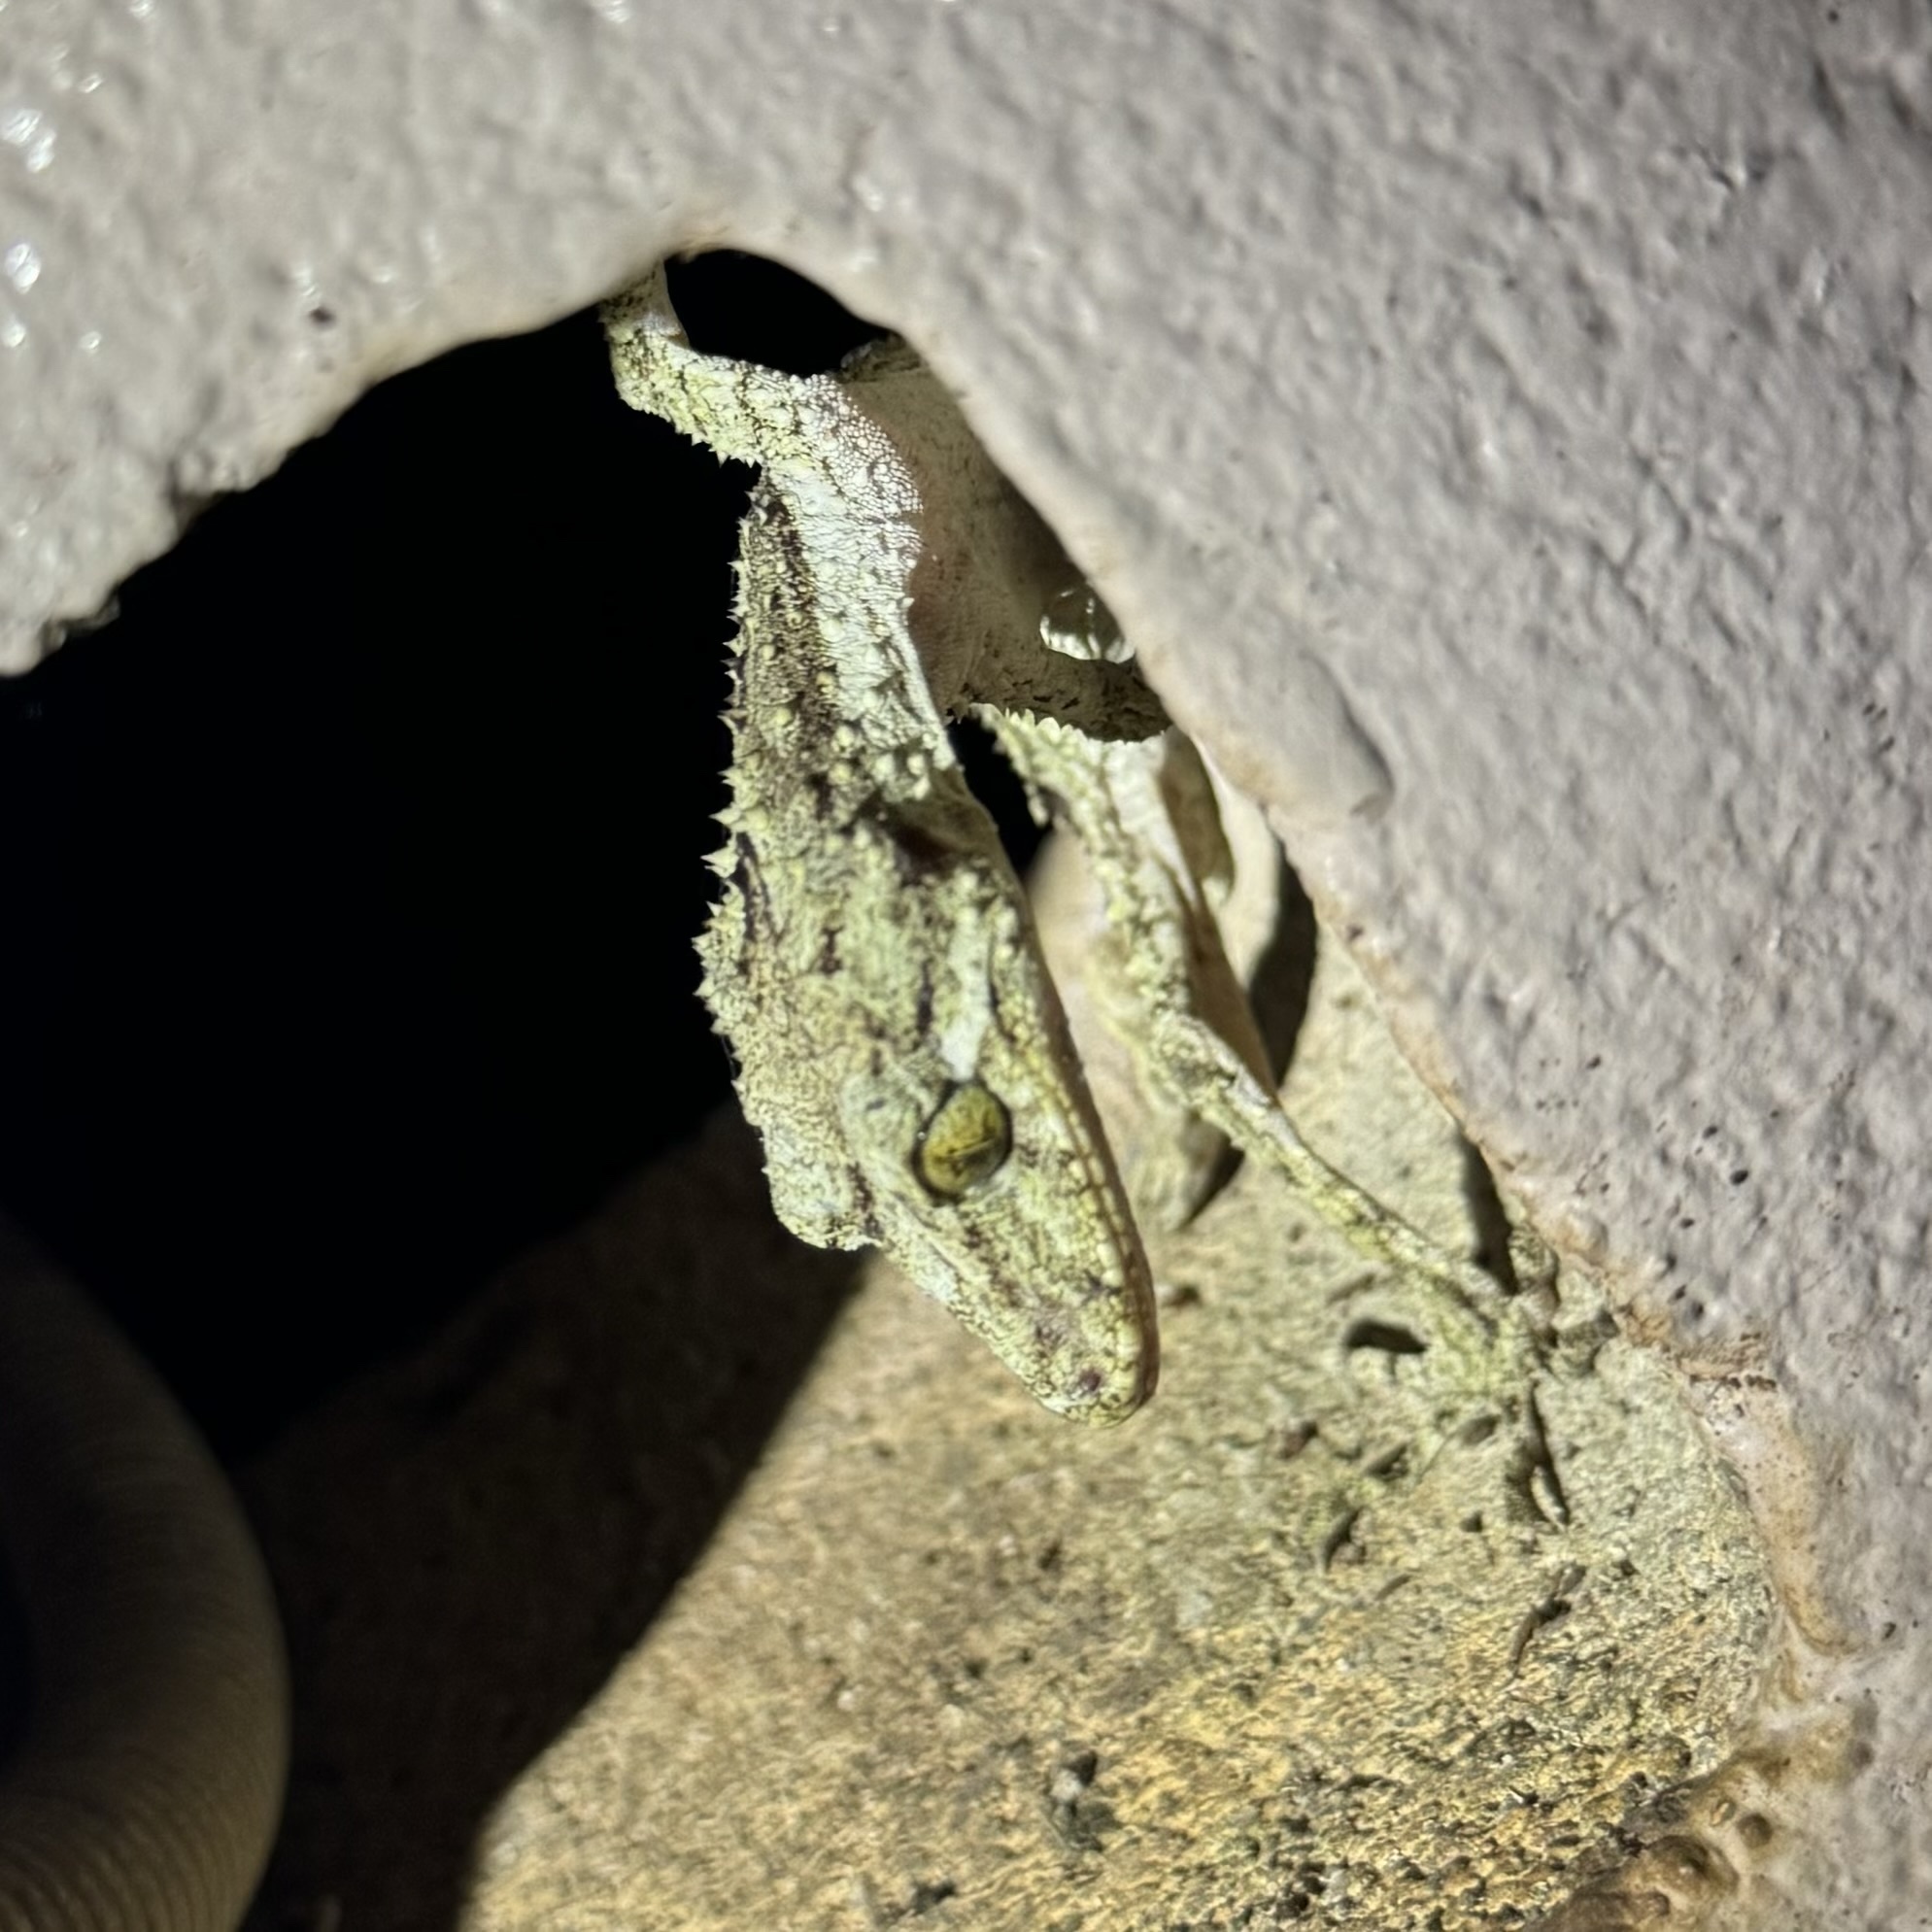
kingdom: Animalia
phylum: Chordata
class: Squamata
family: Carphodactylidae
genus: Saltuarius
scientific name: Saltuarius swaini
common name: Southern leaf-tailed gecko
